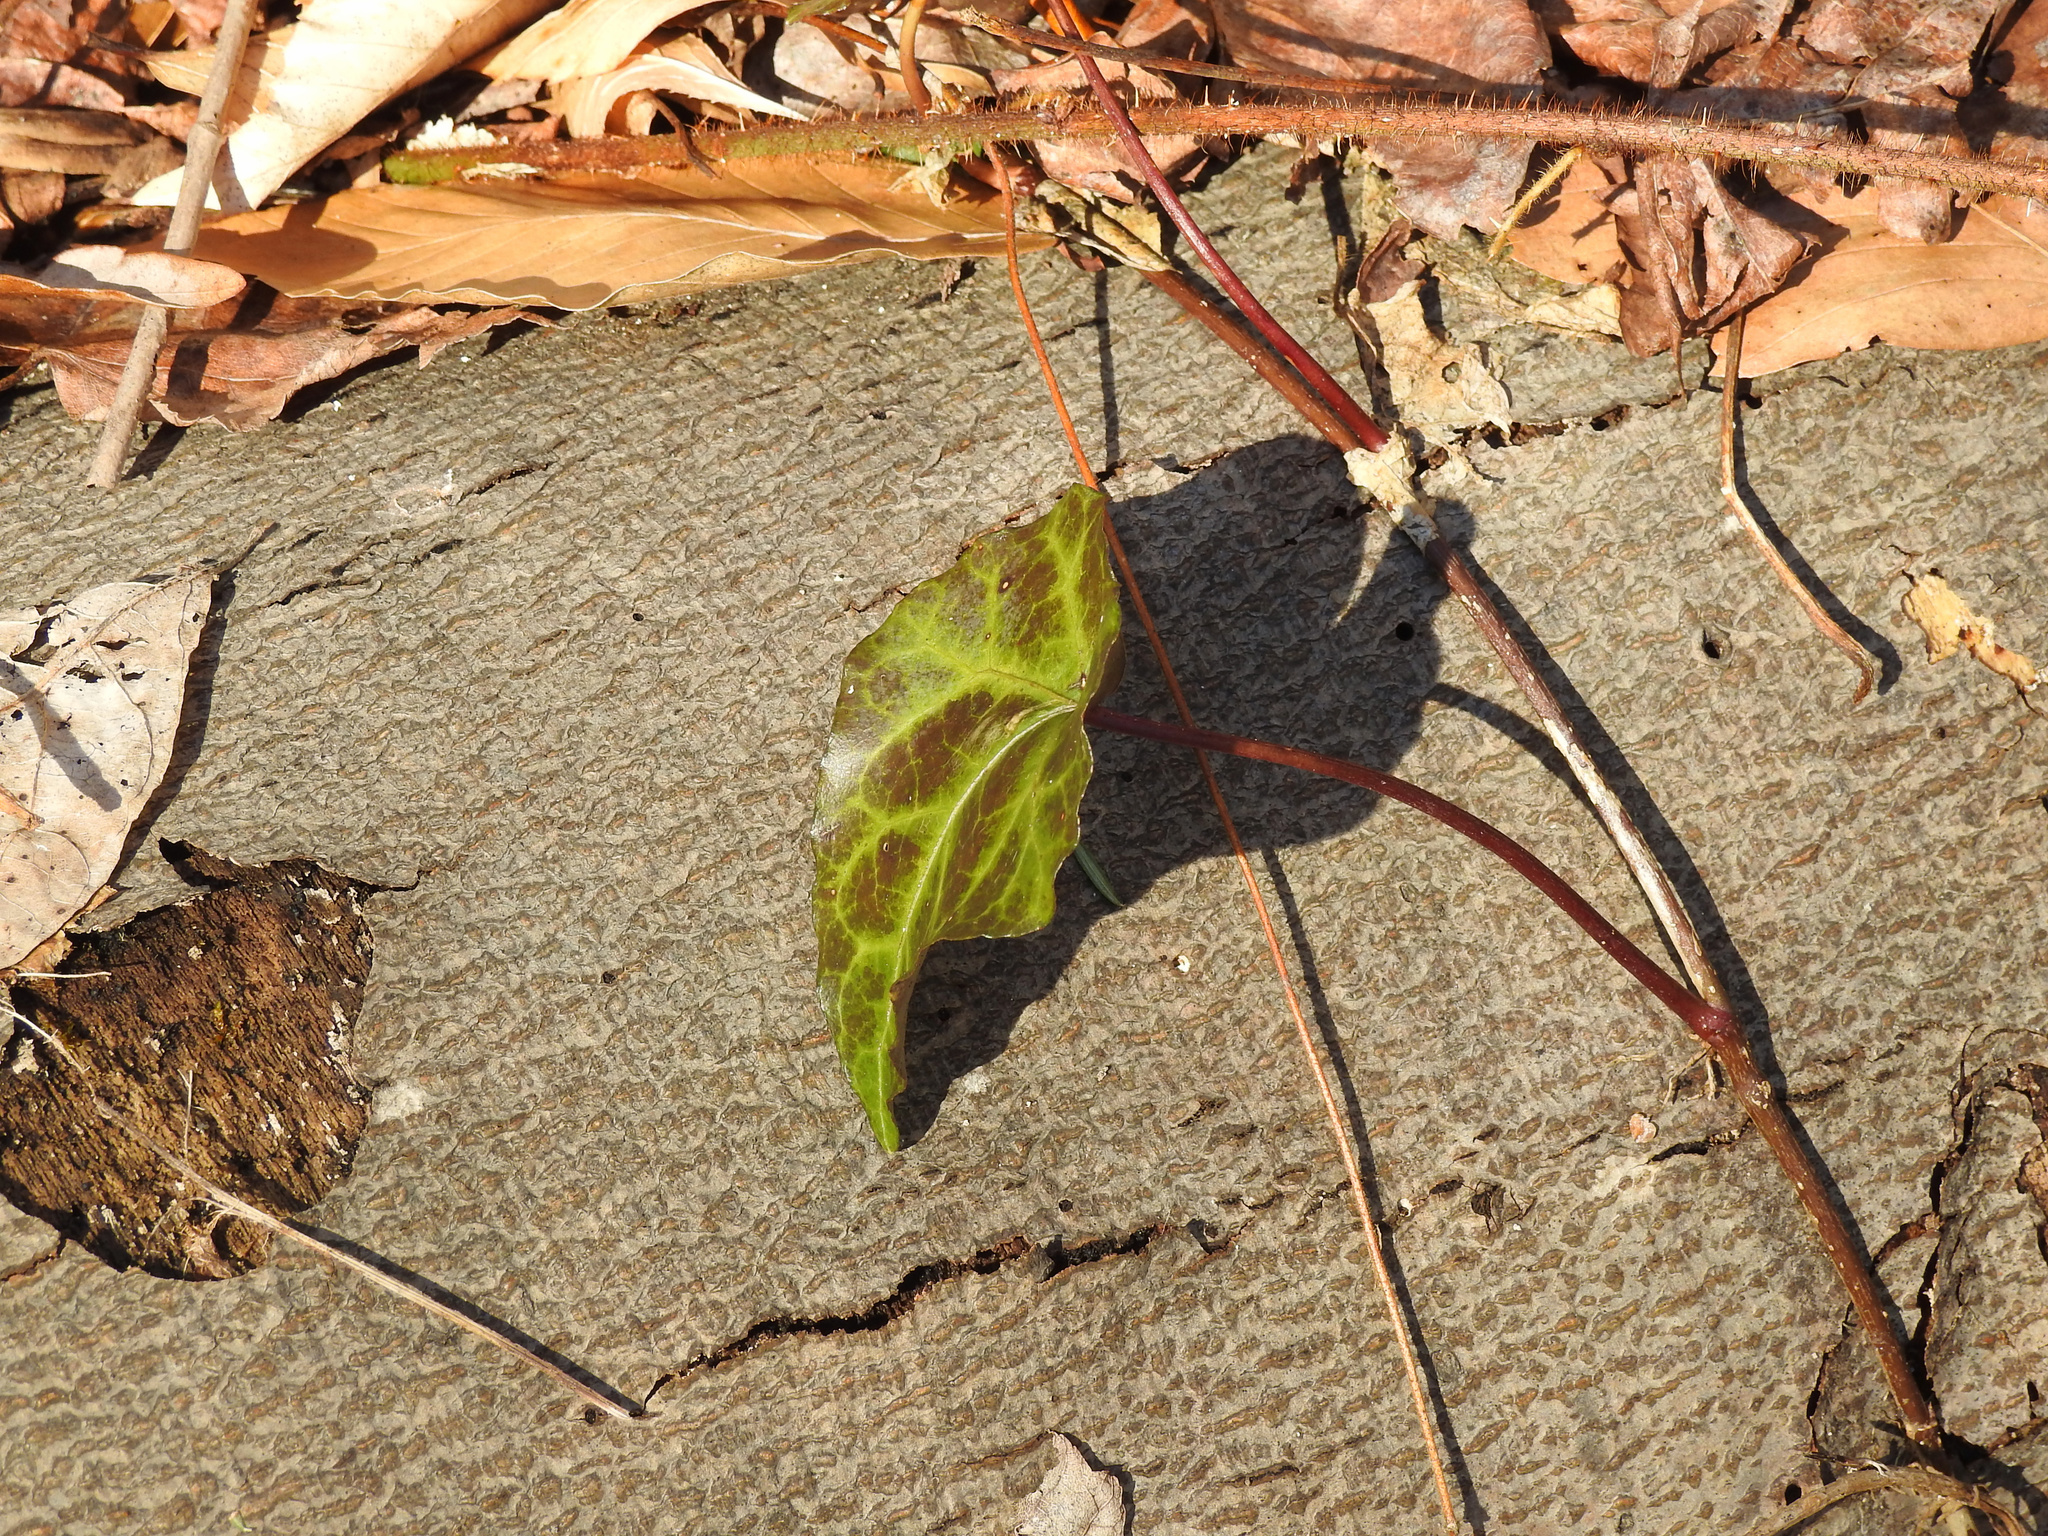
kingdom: Plantae
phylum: Tracheophyta
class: Magnoliopsida
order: Apiales
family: Araliaceae
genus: Hedera
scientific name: Hedera helix
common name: Ivy
